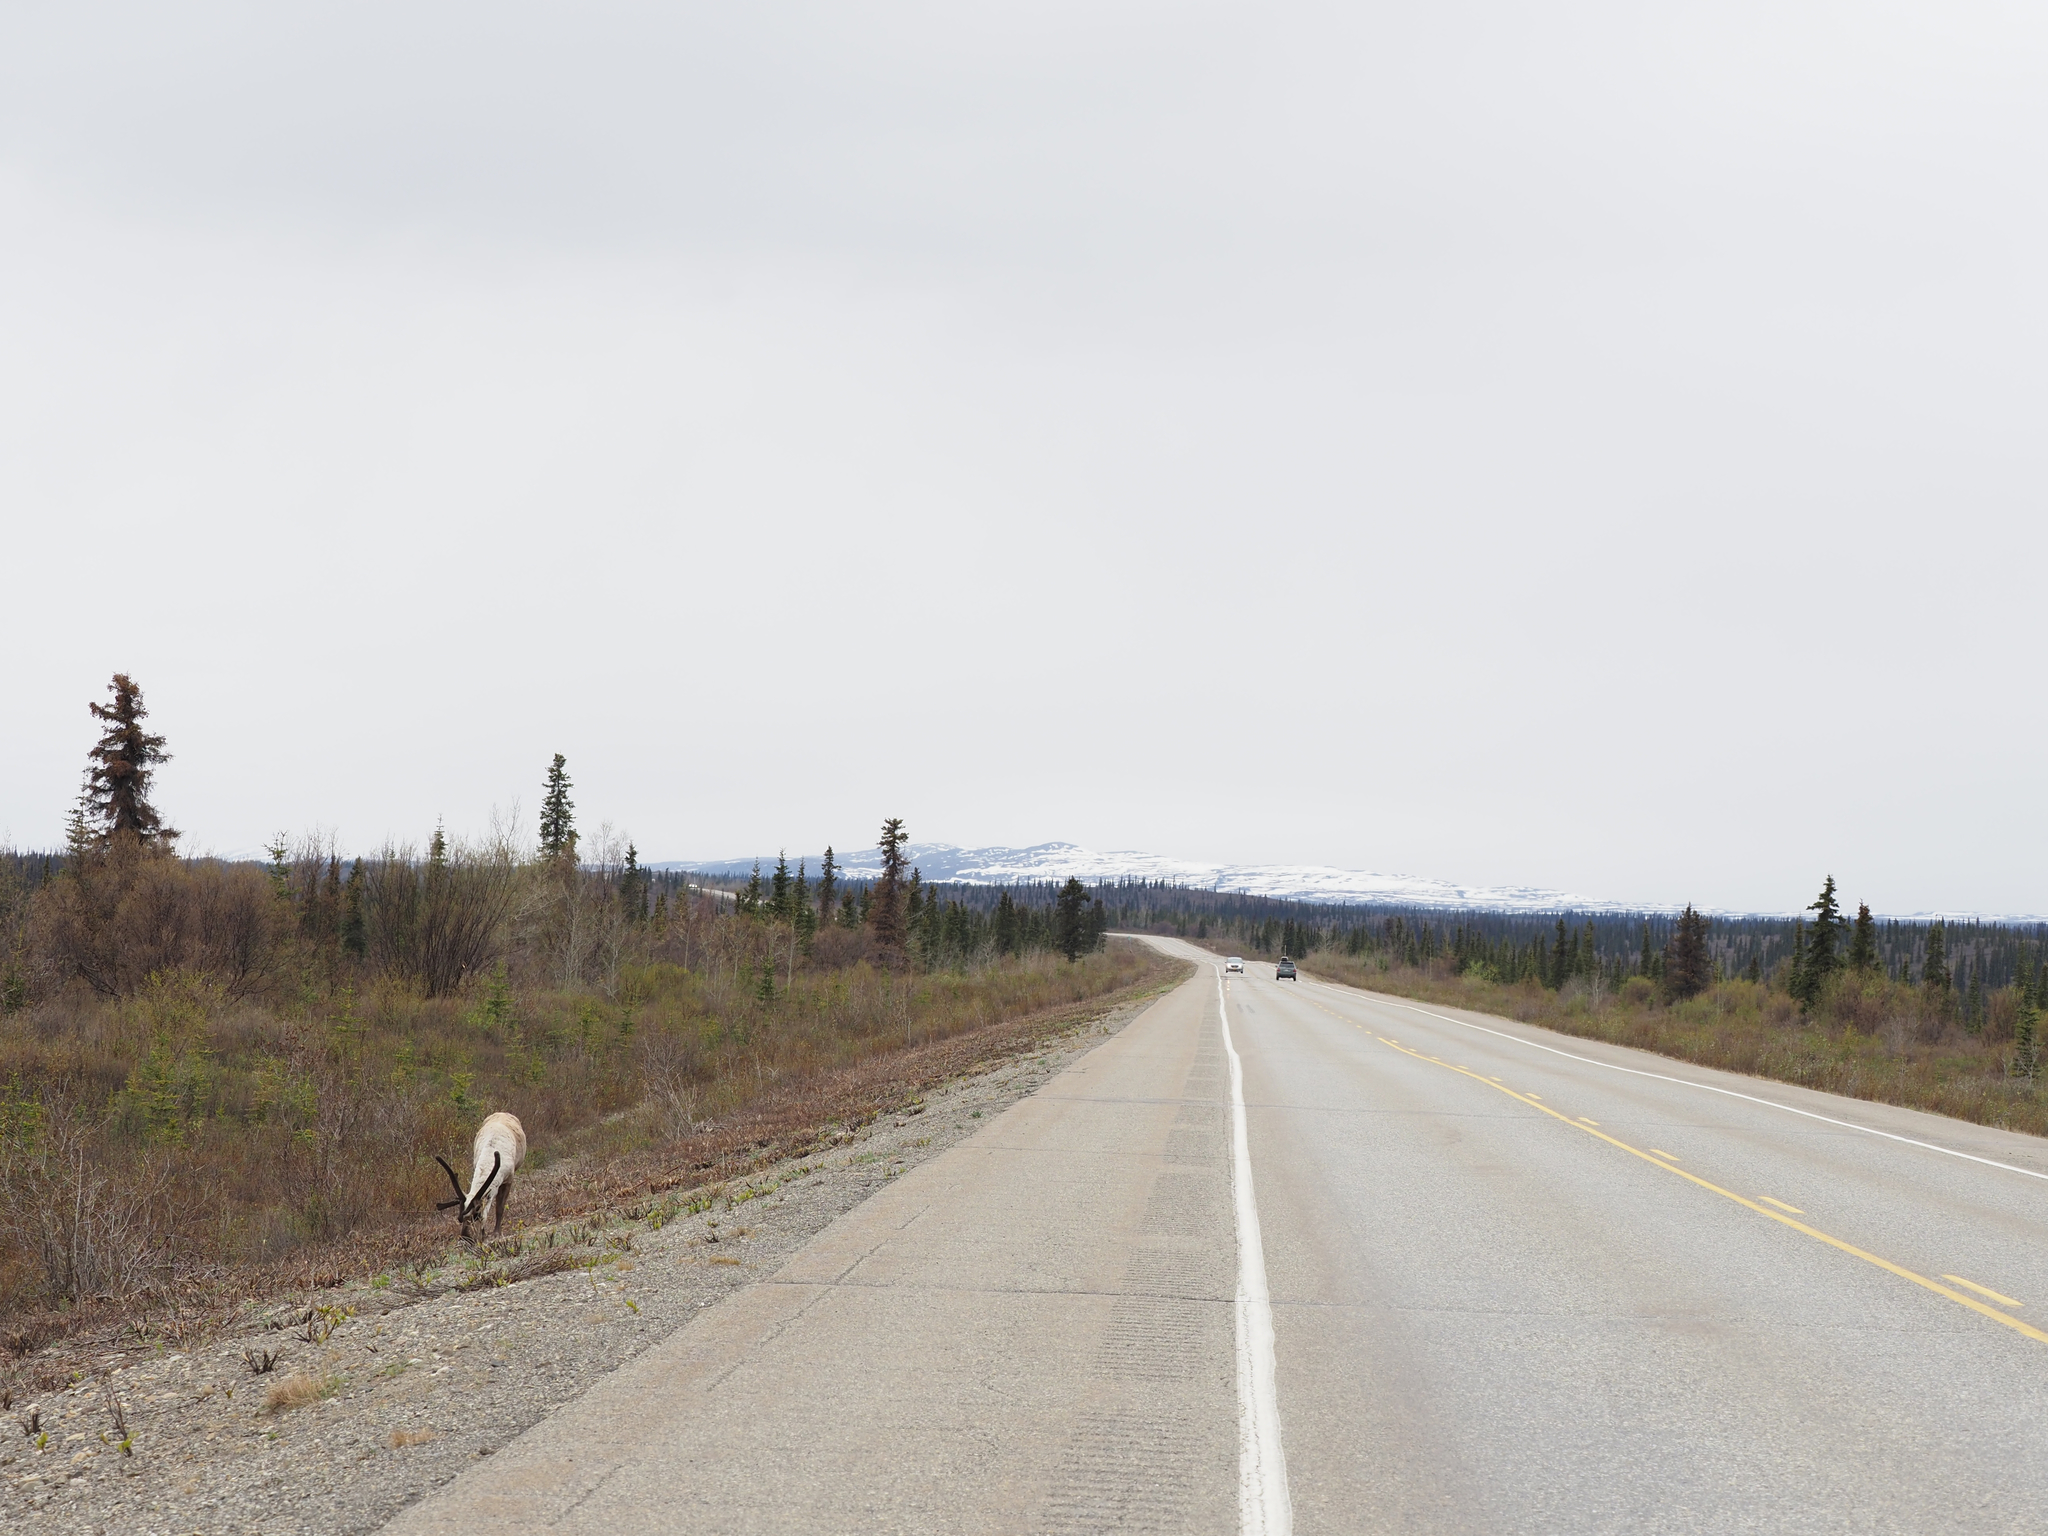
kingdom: Animalia
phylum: Chordata
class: Mammalia
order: Artiodactyla
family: Cervidae
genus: Rangifer
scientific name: Rangifer tarandus
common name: Reindeer
